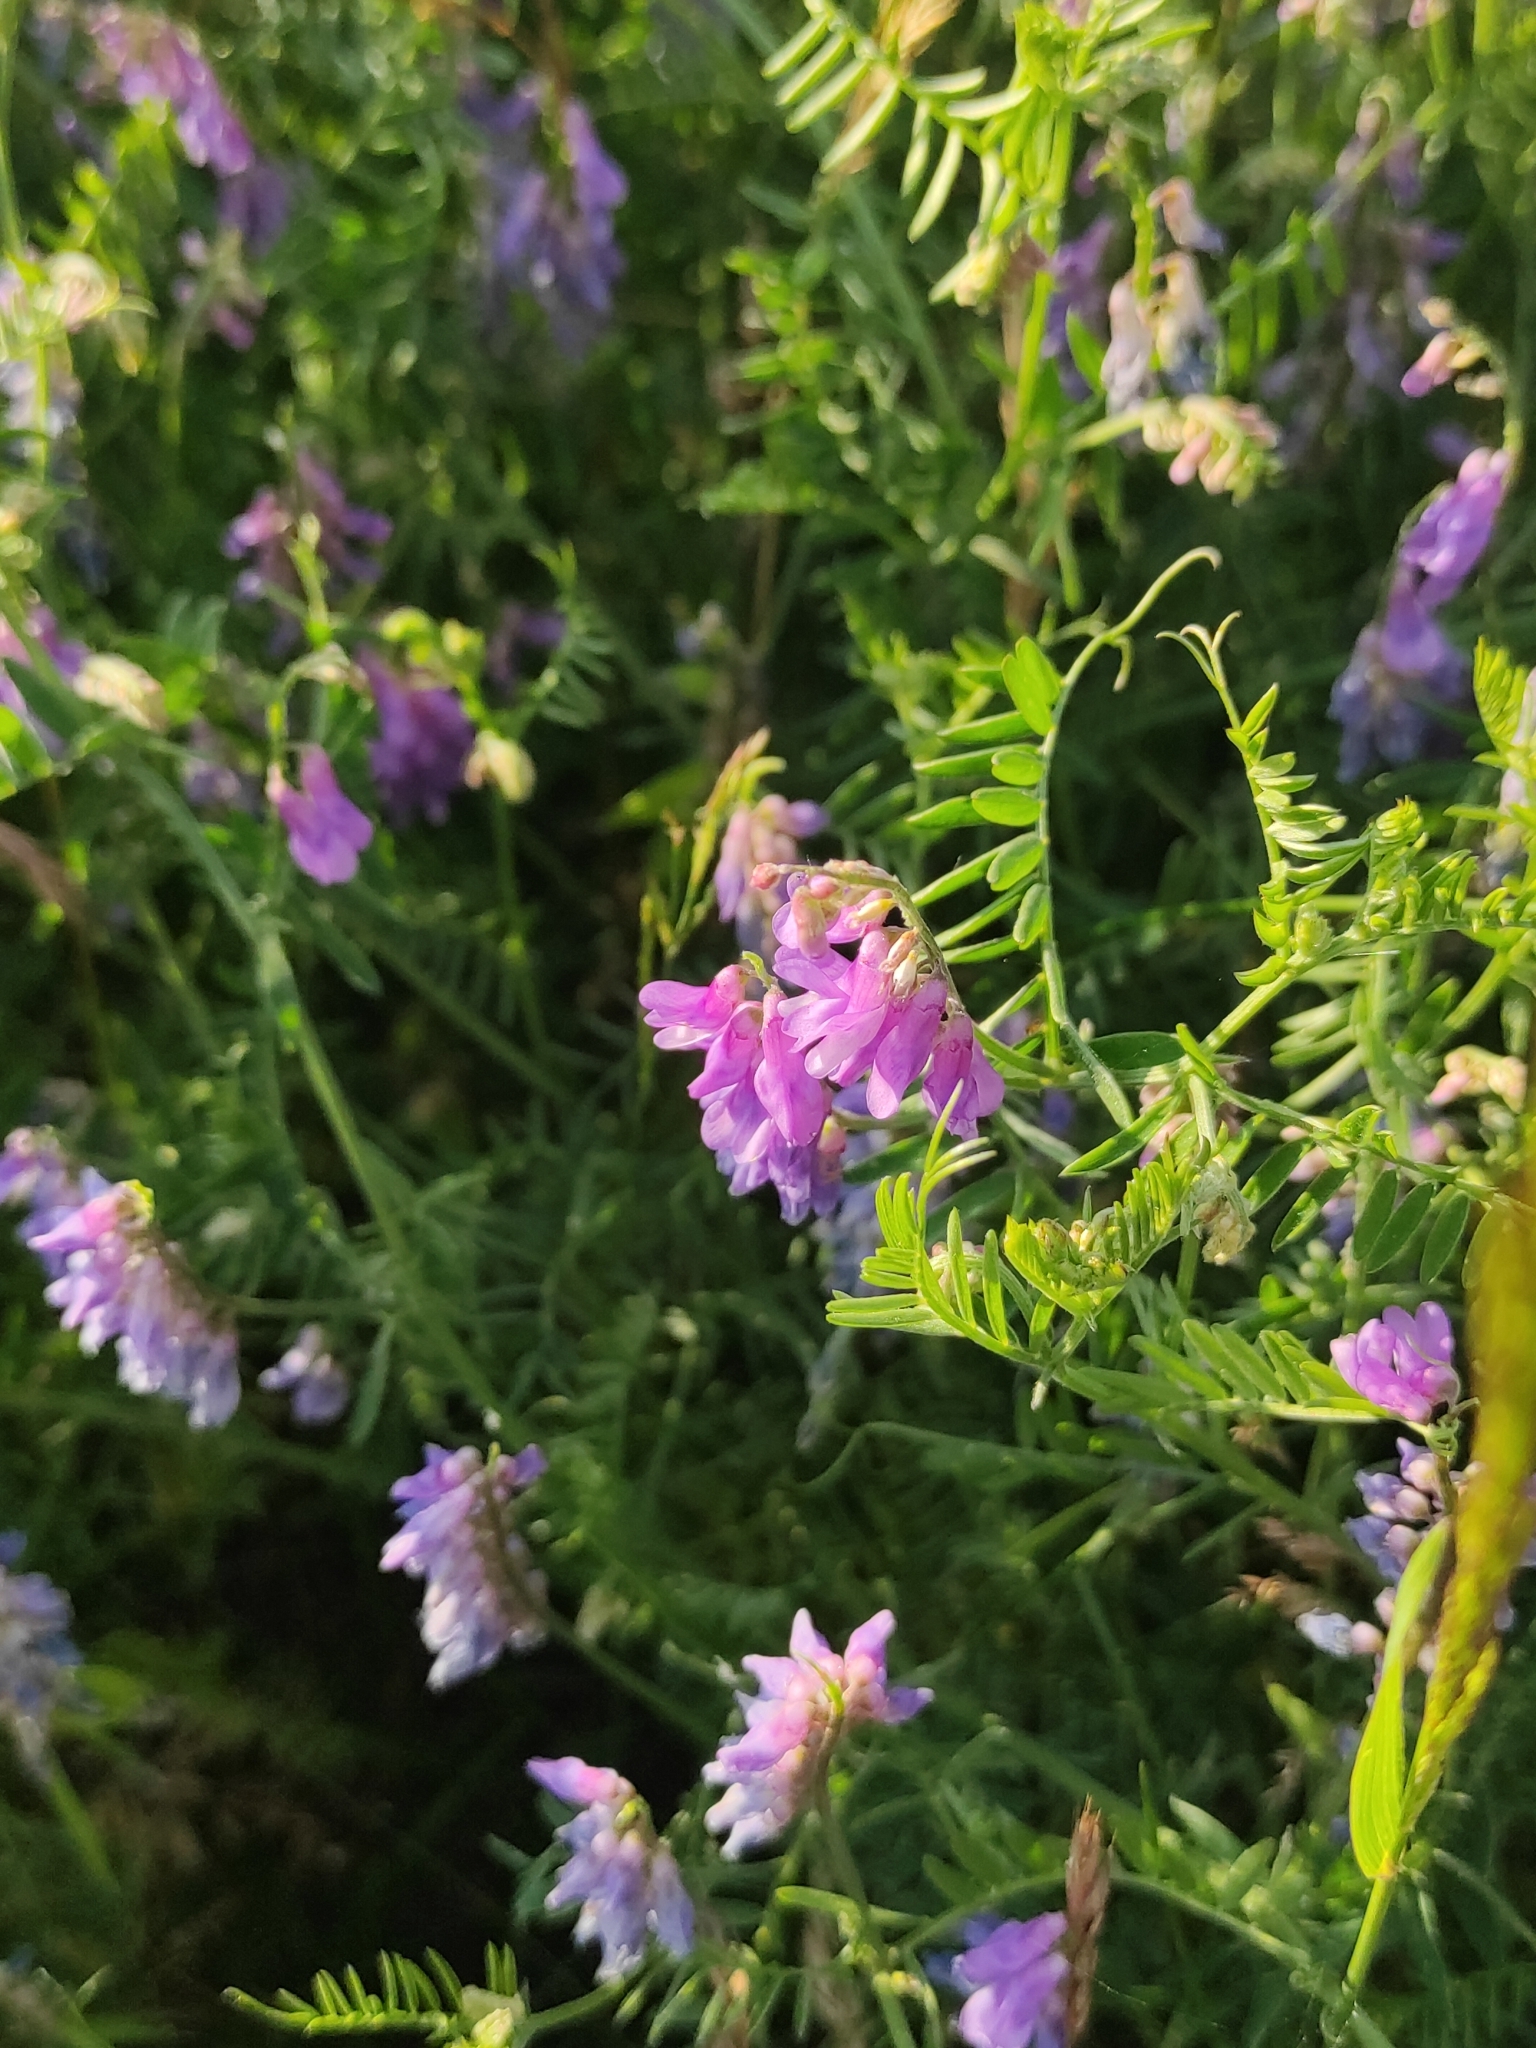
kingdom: Plantae
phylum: Tracheophyta
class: Magnoliopsida
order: Fabales
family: Fabaceae
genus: Vicia
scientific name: Vicia cracca
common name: Bird vetch
